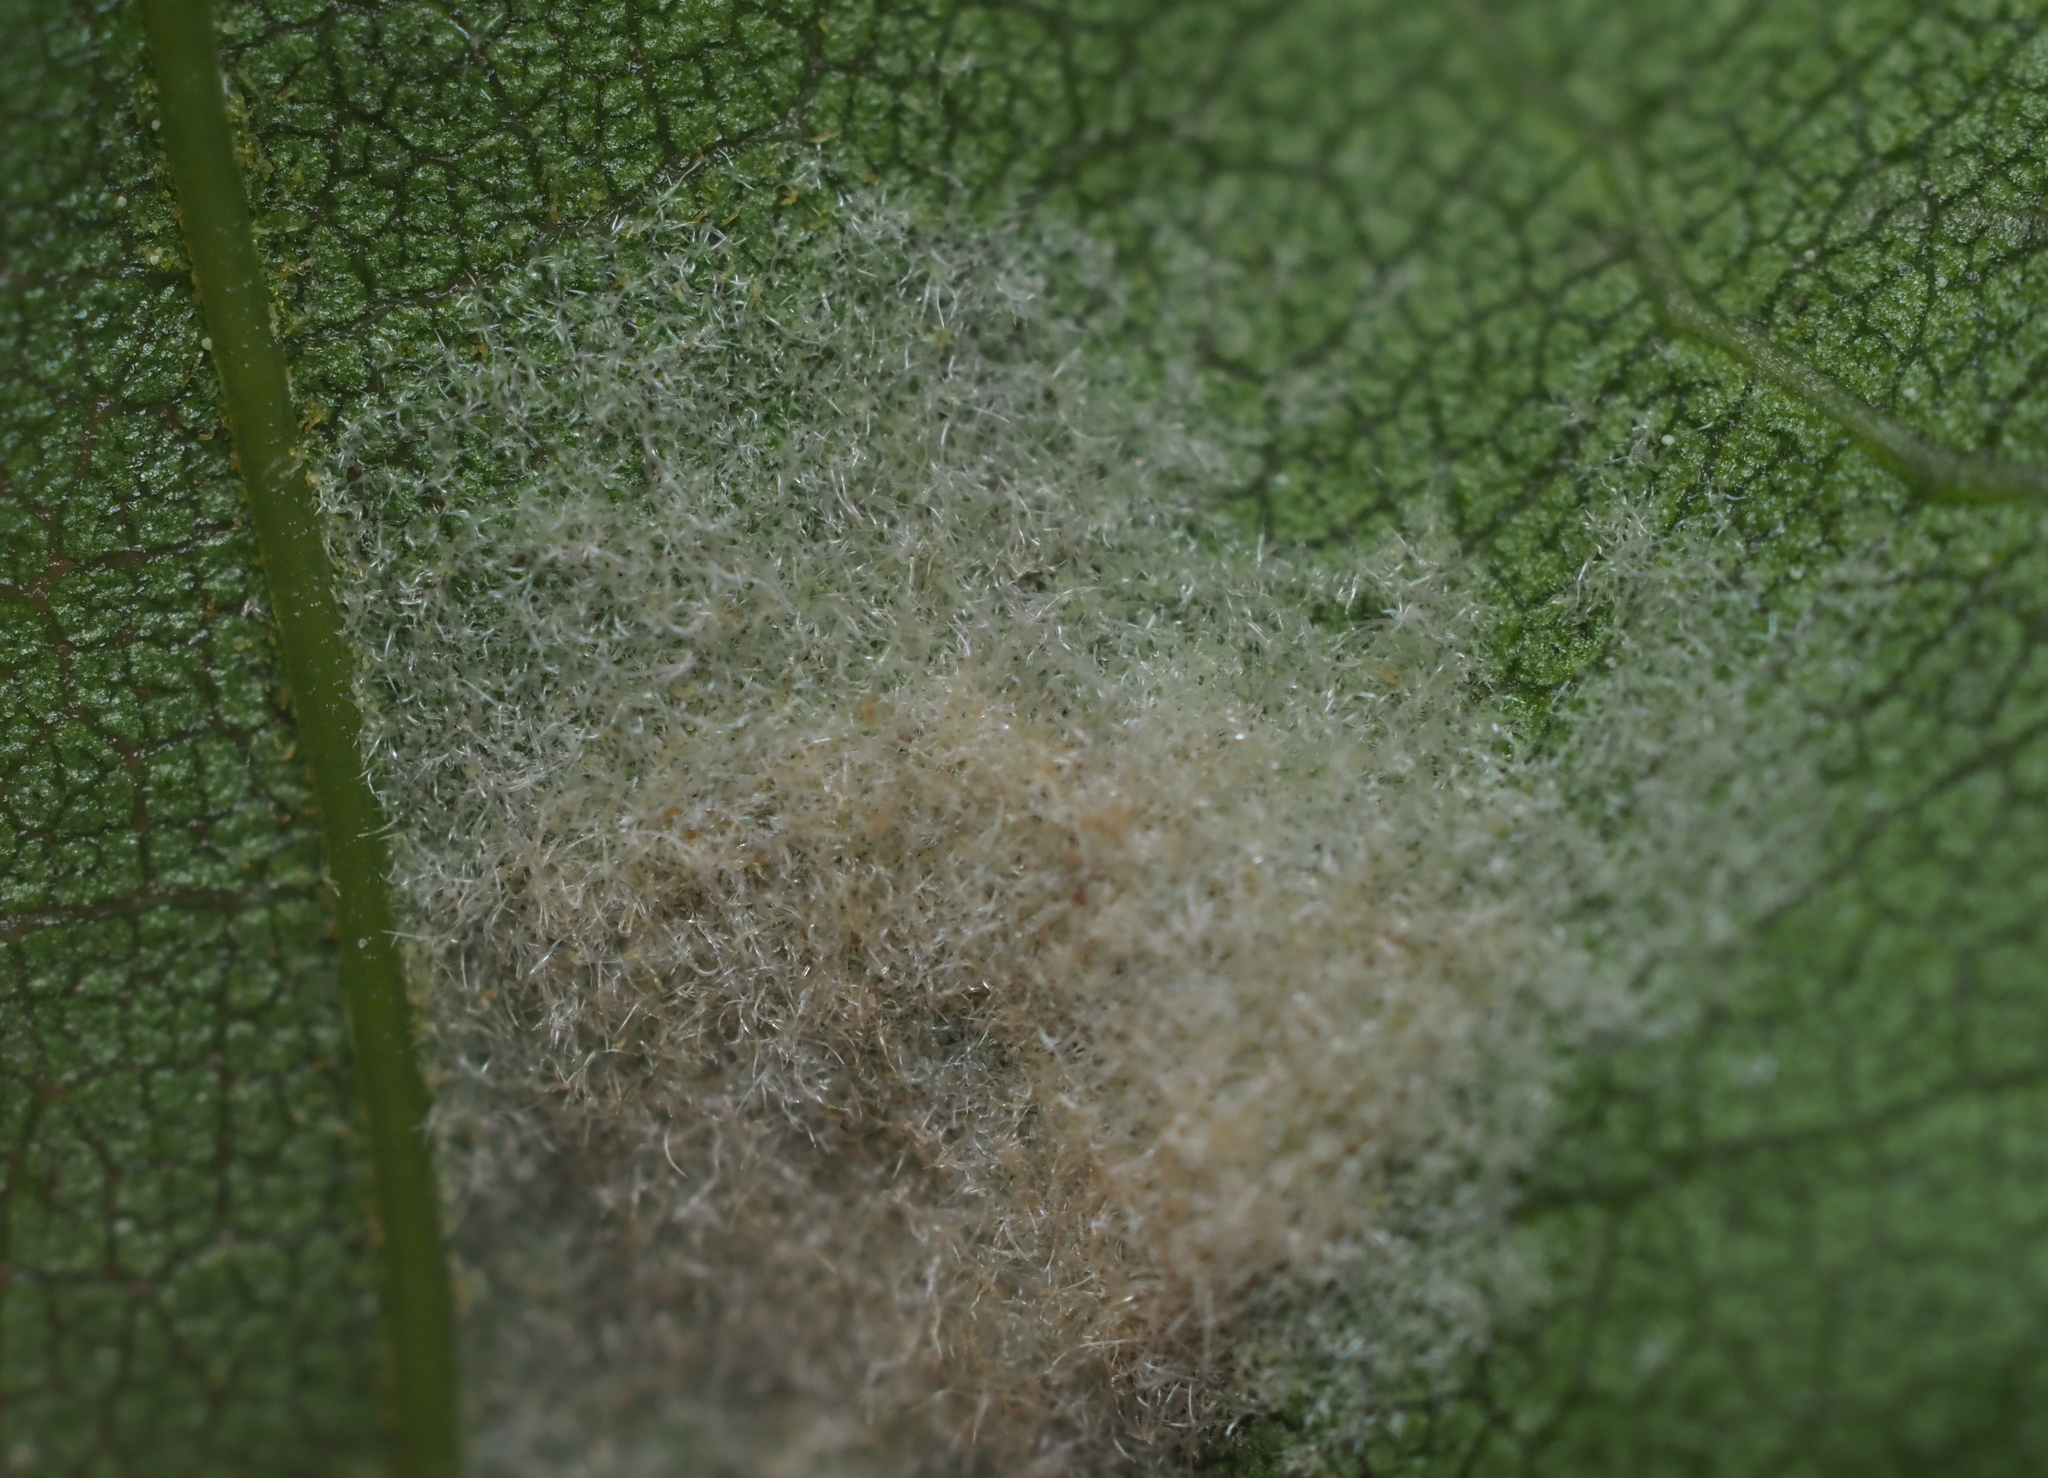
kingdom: Animalia
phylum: Arthropoda
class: Arachnida
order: Trombidiformes
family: Eriophyidae
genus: Aceria
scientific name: Aceria
